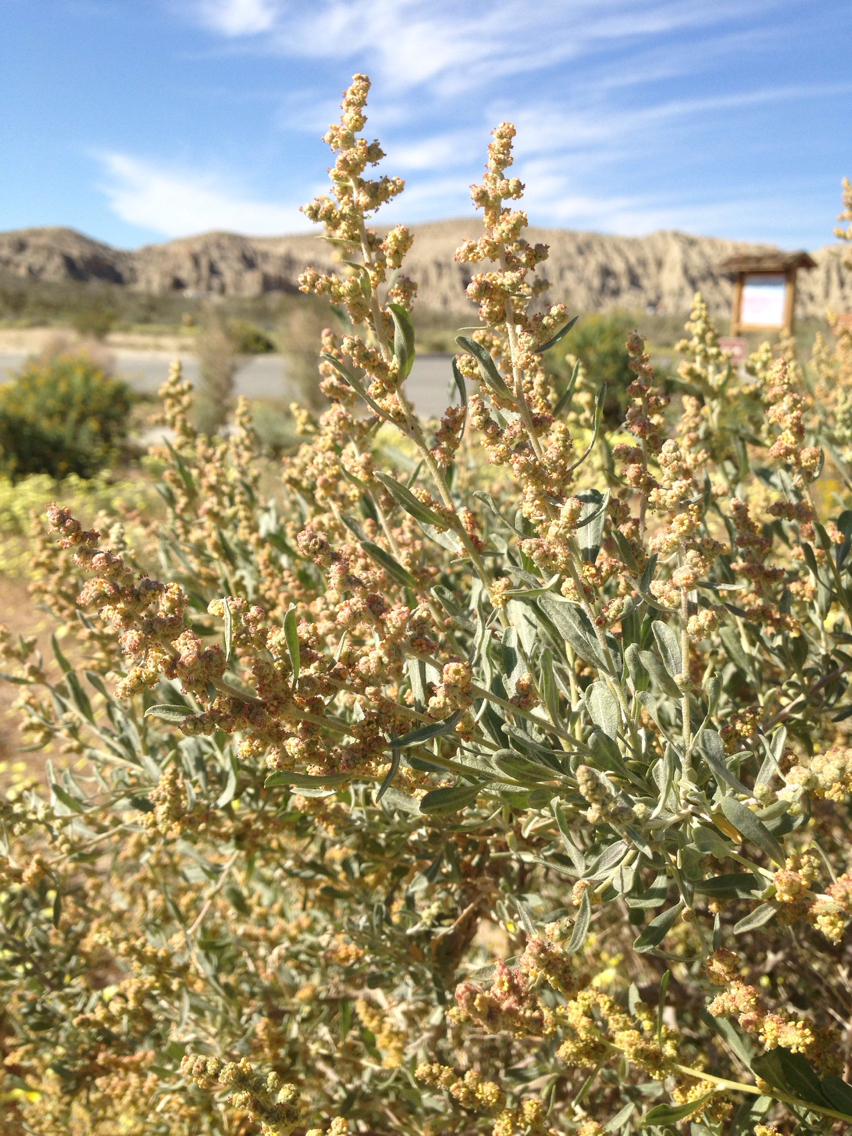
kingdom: Plantae
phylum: Tracheophyta
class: Magnoliopsida
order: Caryophyllales
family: Amaranthaceae
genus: Atriplex
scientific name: Atriplex canescens
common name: Four-wing saltbush
